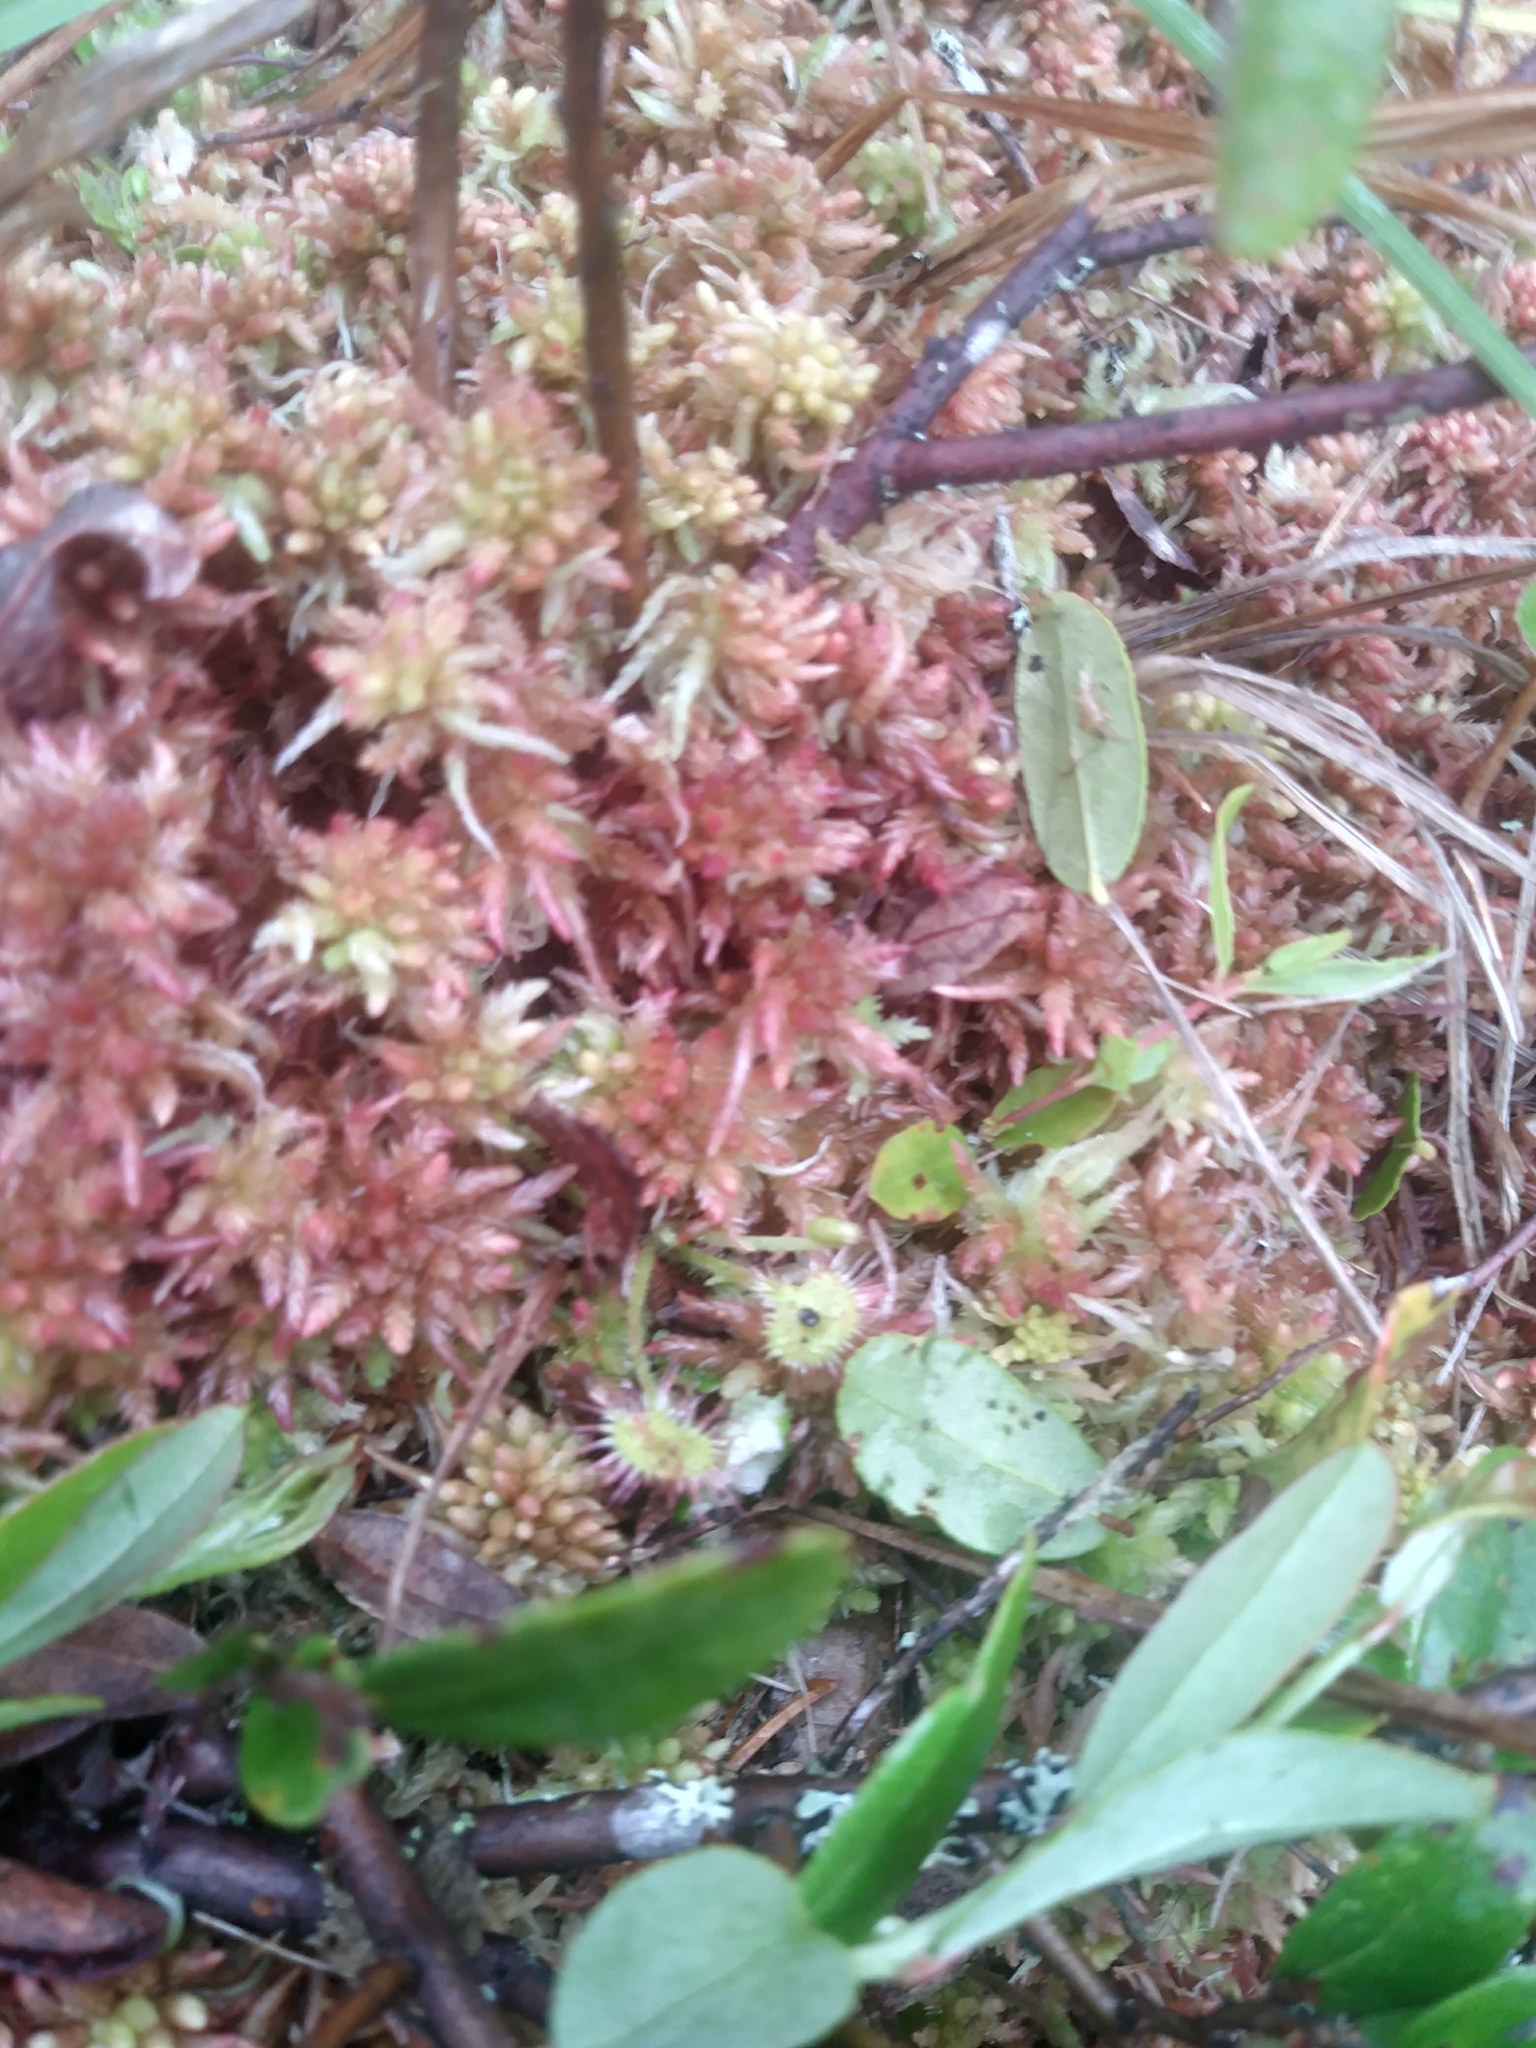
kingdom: Plantae
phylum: Tracheophyta
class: Magnoliopsida
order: Caryophyllales
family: Droseraceae
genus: Drosera
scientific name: Drosera rotundifolia
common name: Round-leaved sundew
